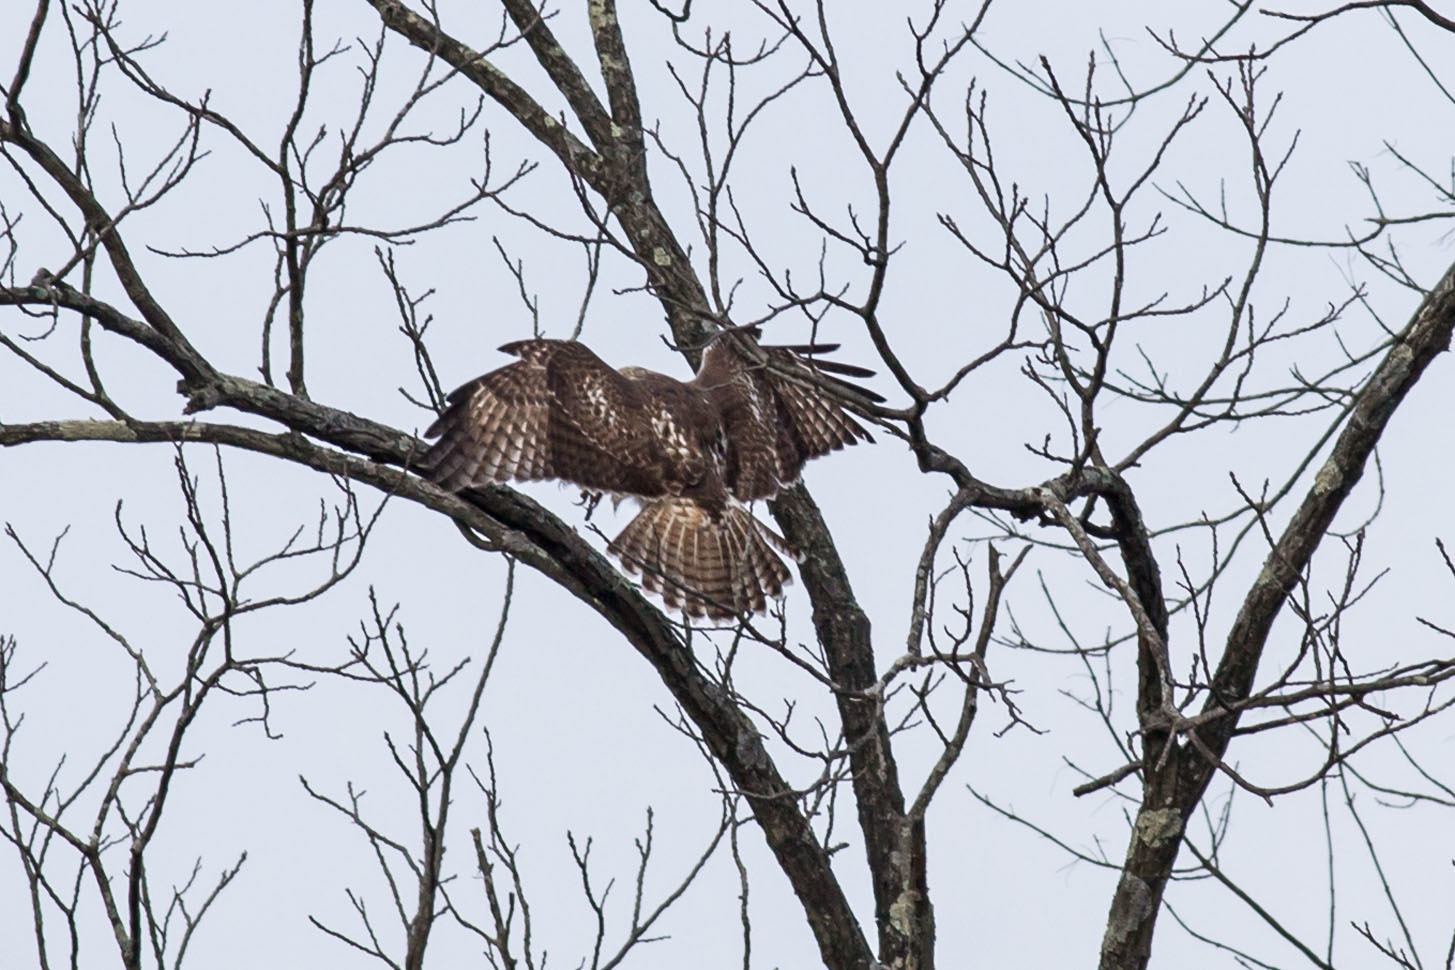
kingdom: Animalia
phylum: Chordata
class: Aves
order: Accipitriformes
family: Accipitridae
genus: Buteo
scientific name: Buteo jamaicensis
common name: Red-tailed hawk
